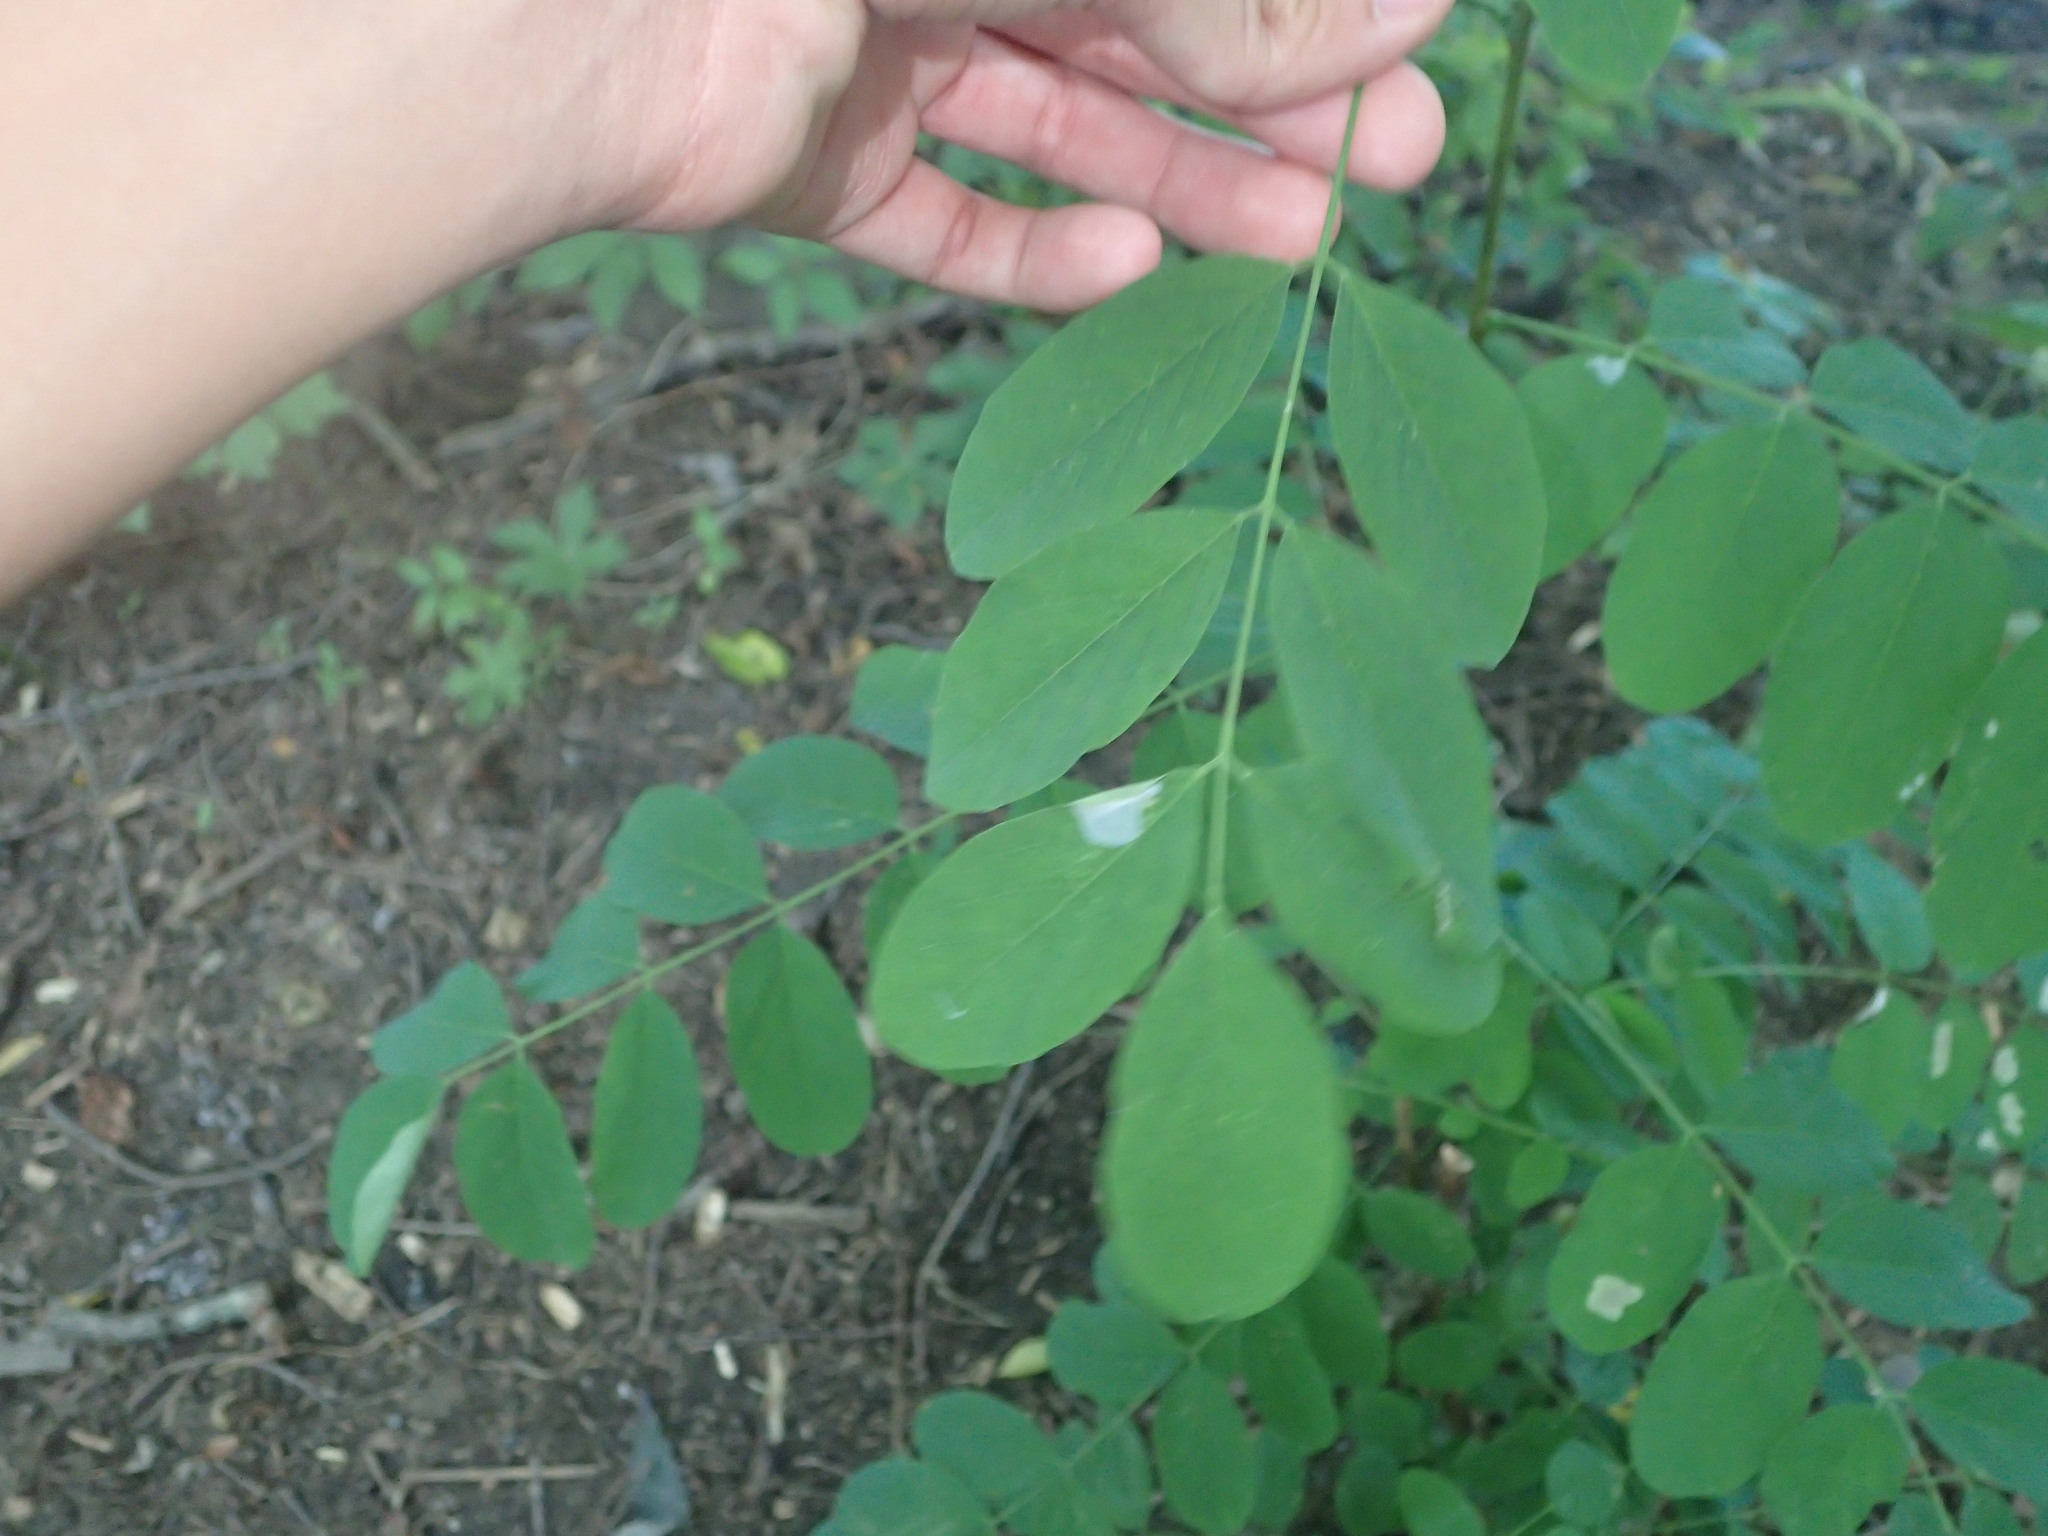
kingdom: Animalia
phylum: Arthropoda
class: Insecta
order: Lepidoptera
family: Gracillariidae
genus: Macrosaccus
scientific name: Macrosaccus robiniella
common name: Leaf blotch miner moth
